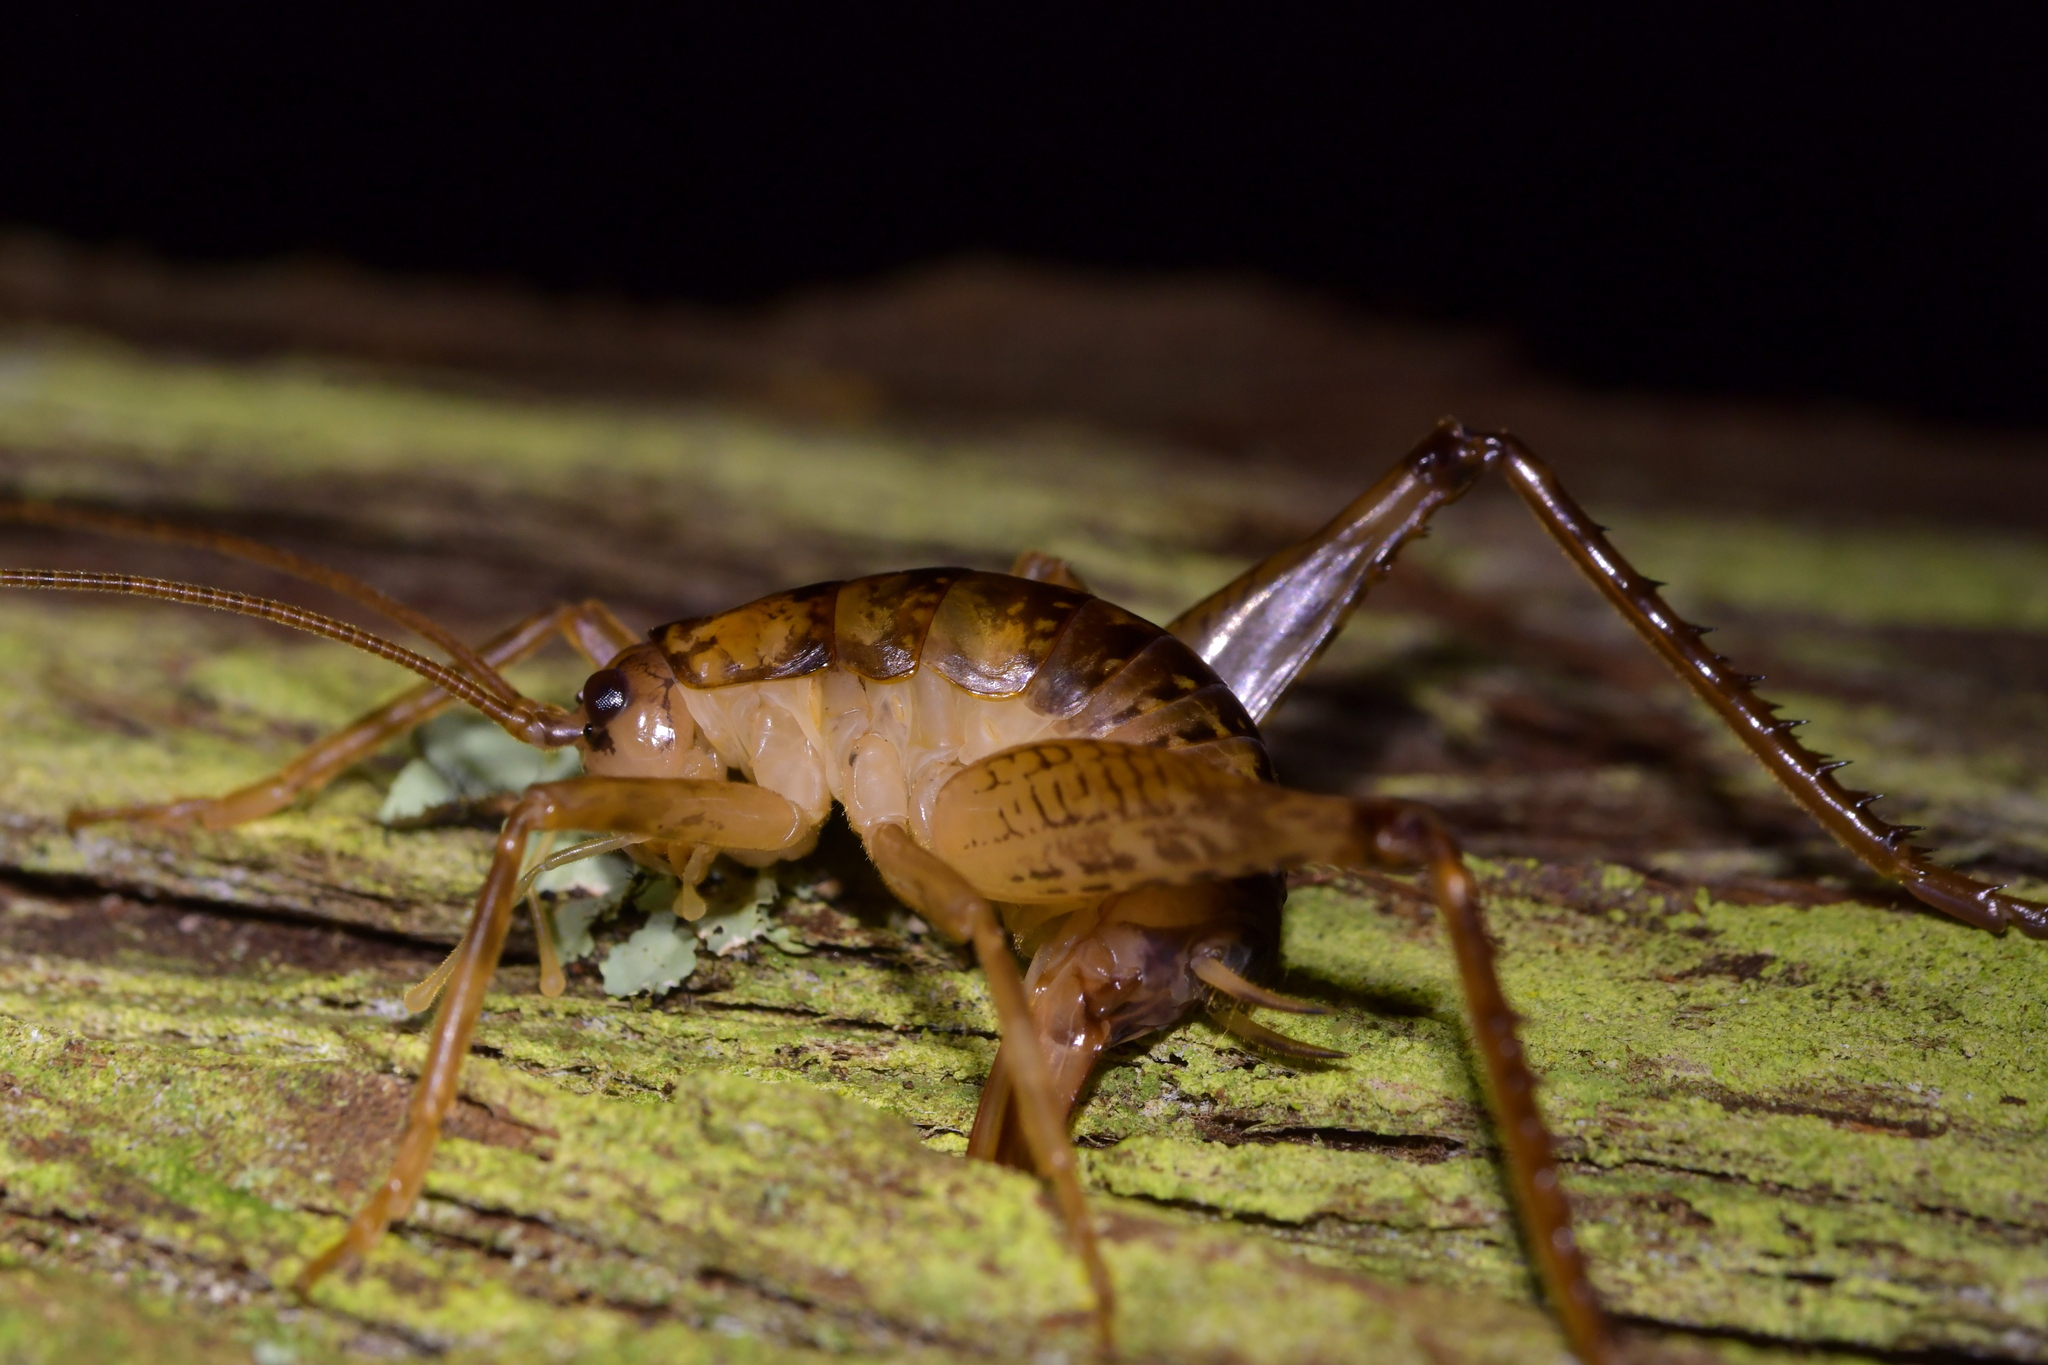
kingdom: Animalia
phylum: Arthropoda
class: Insecta
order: Orthoptera
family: Rhaphidophoridae
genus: Talitropsis
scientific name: Talitropsis sedilloti
